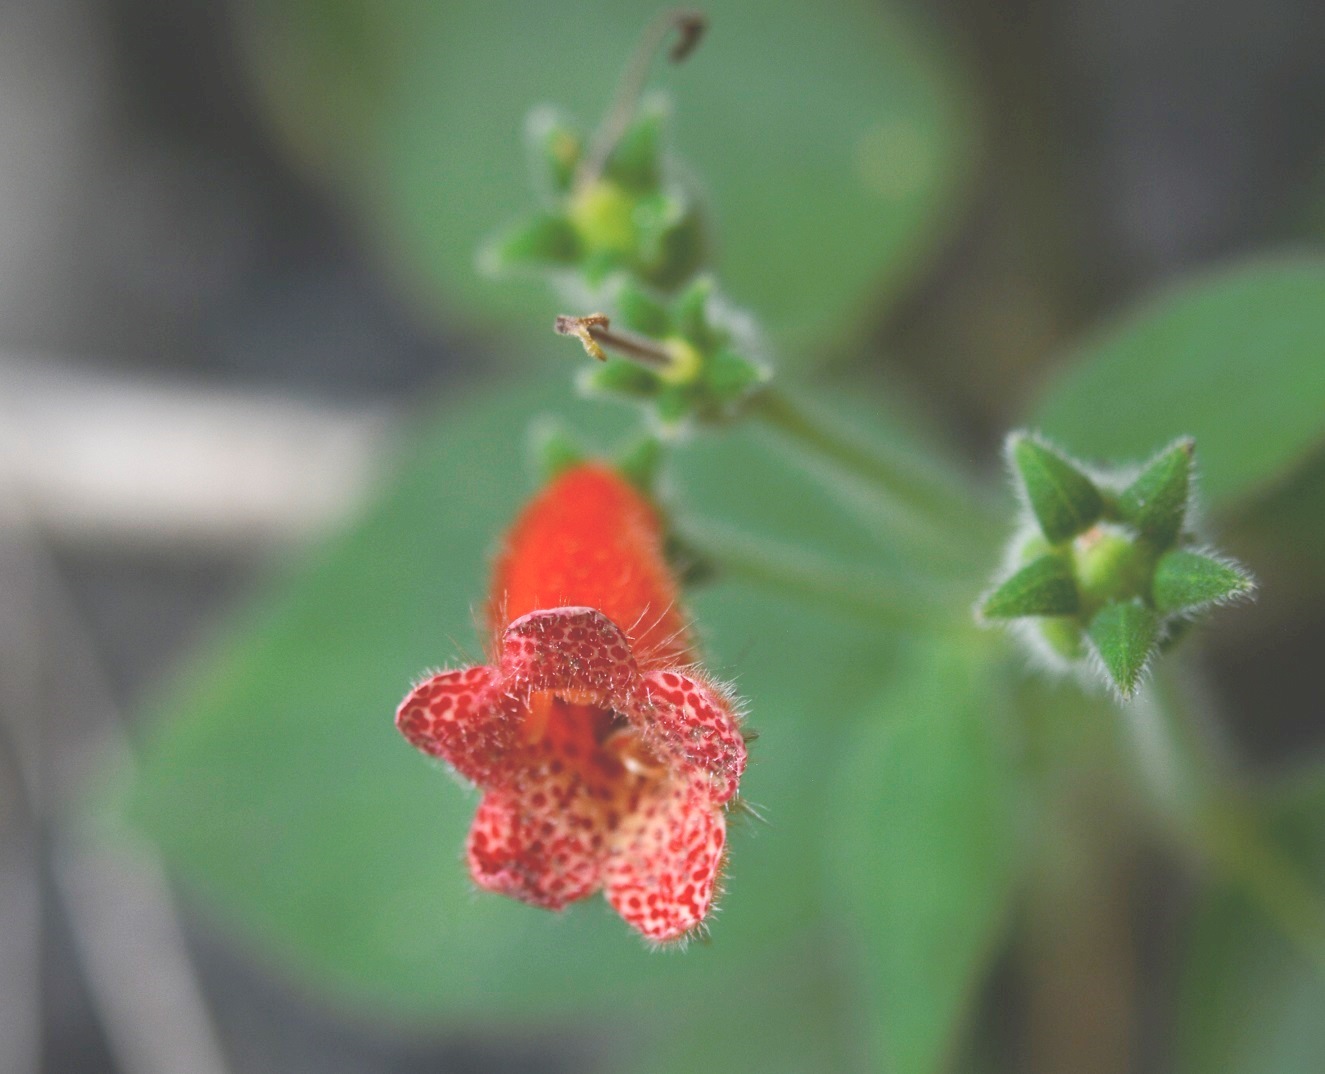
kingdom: Plantae
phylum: Tracheophyta
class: Magnoliopsida
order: Lamiales
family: Gesneriaceae
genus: Kohleria
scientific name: Kohleria rugata
